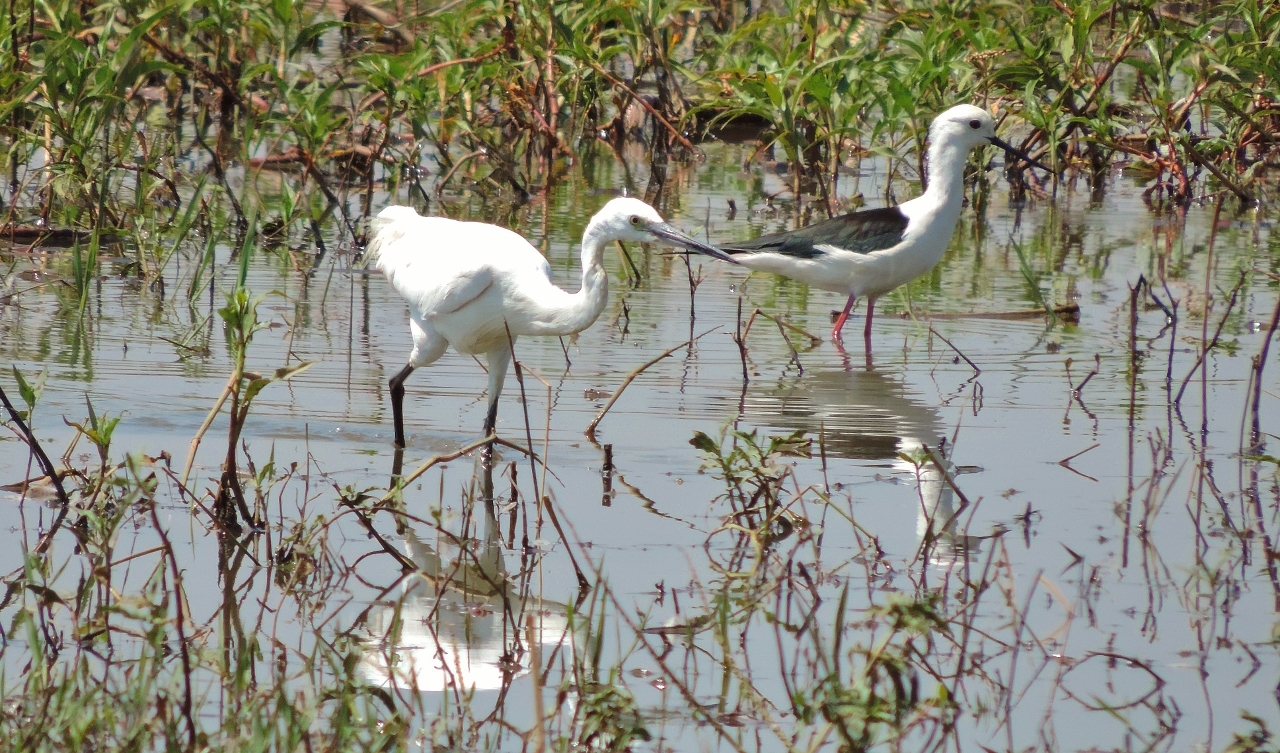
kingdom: Animalia
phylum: Chordata
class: Aves
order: Pelecaniformes
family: Ardeidae
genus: Egretta
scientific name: Egretta garzetta
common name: Little egret
